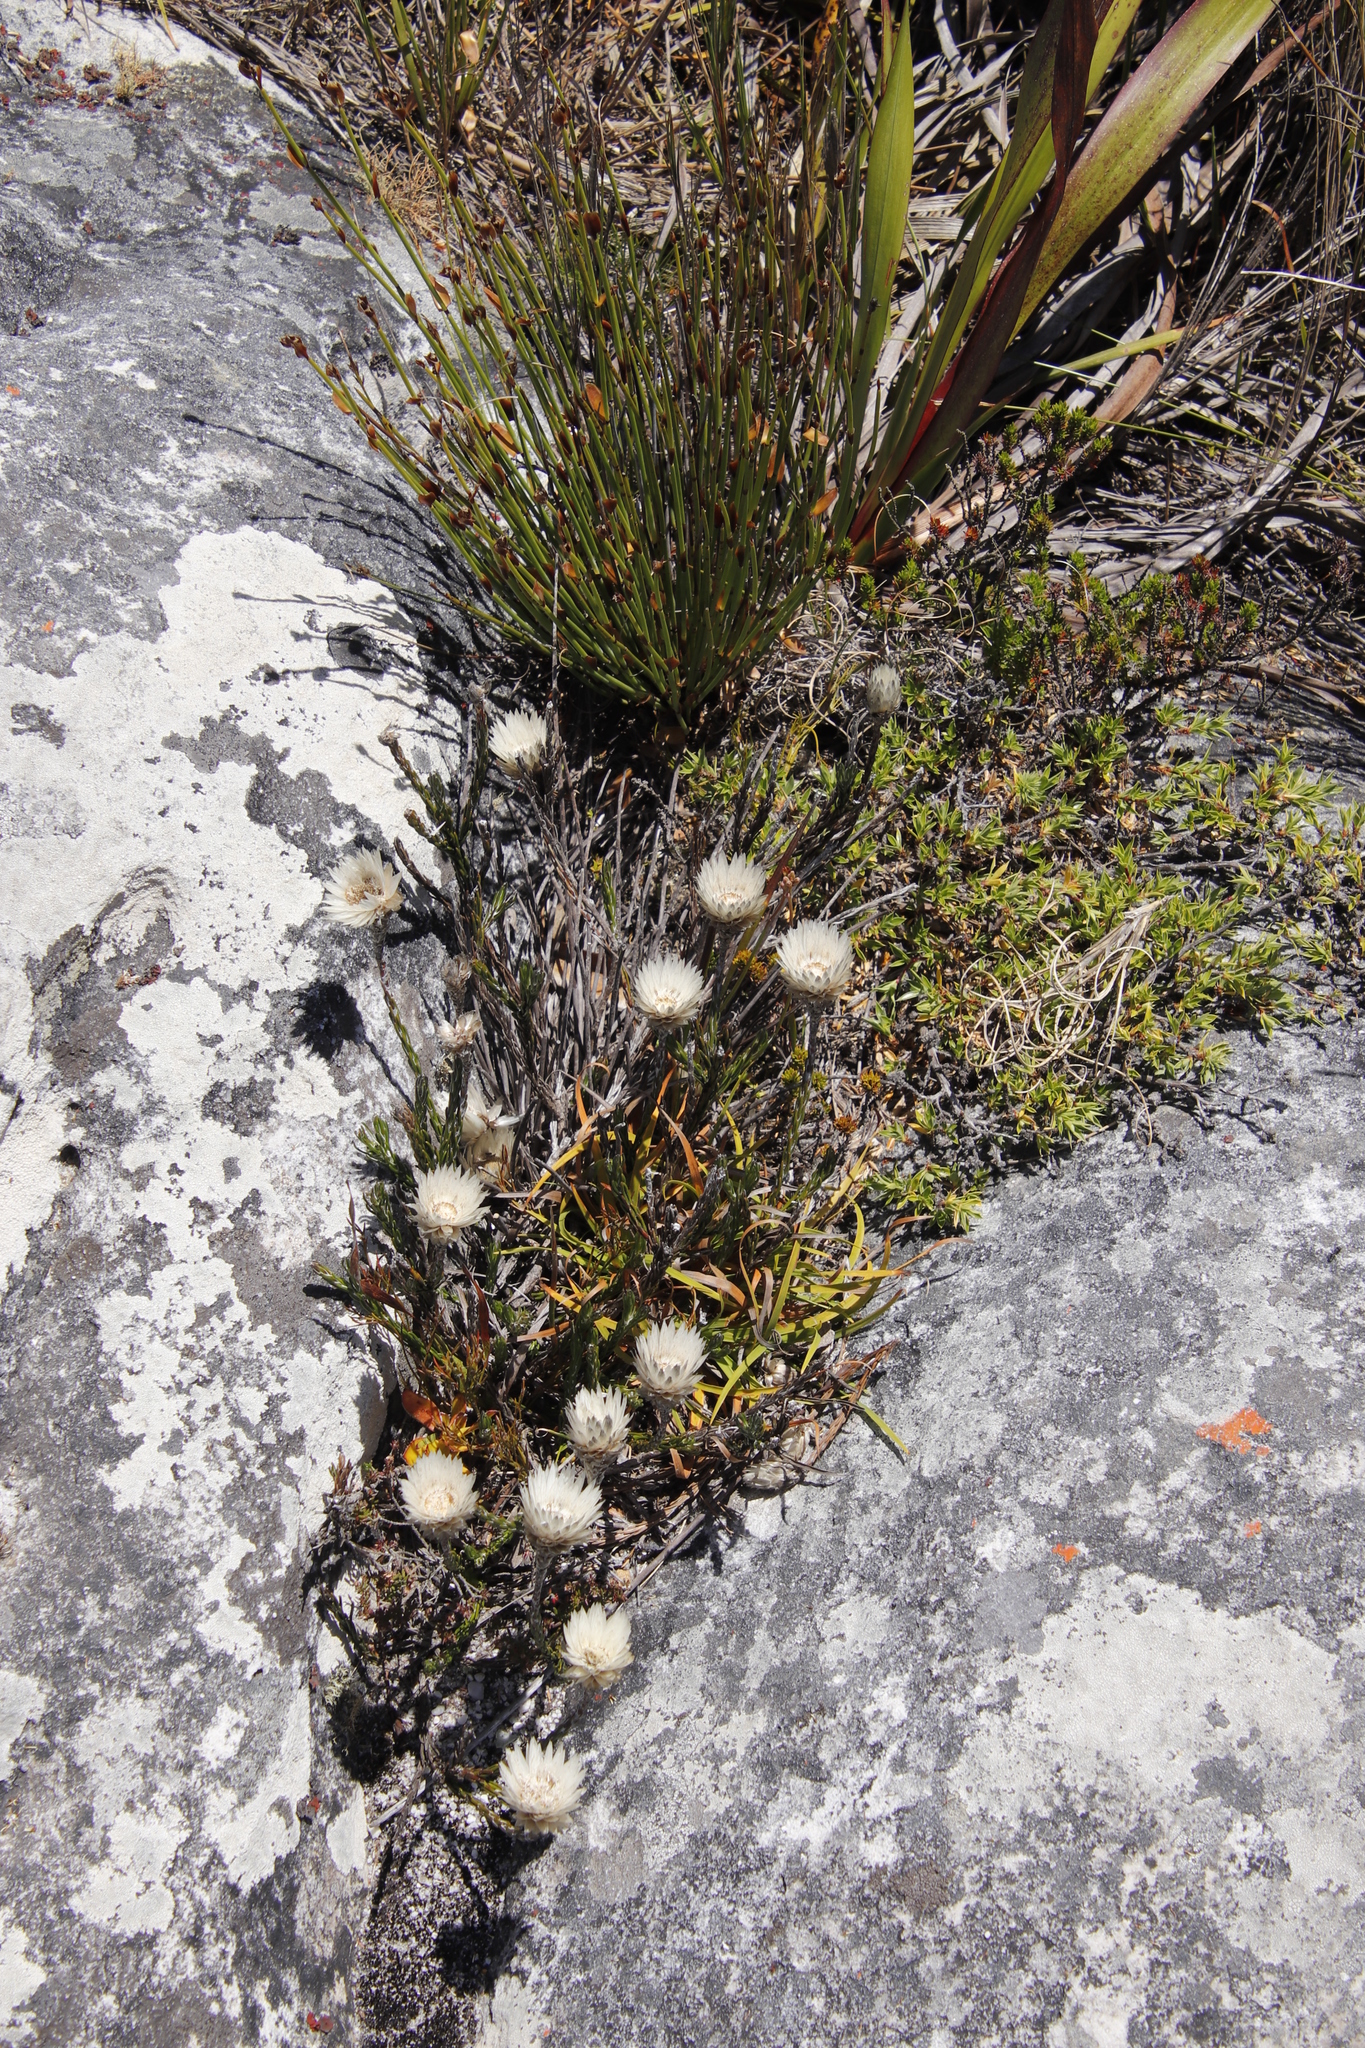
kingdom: Plantae
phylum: Tracheophyta
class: Magnoliopsida
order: Asterales
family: Asteraceae
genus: Edmondia
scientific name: Edmondia pinifolia
